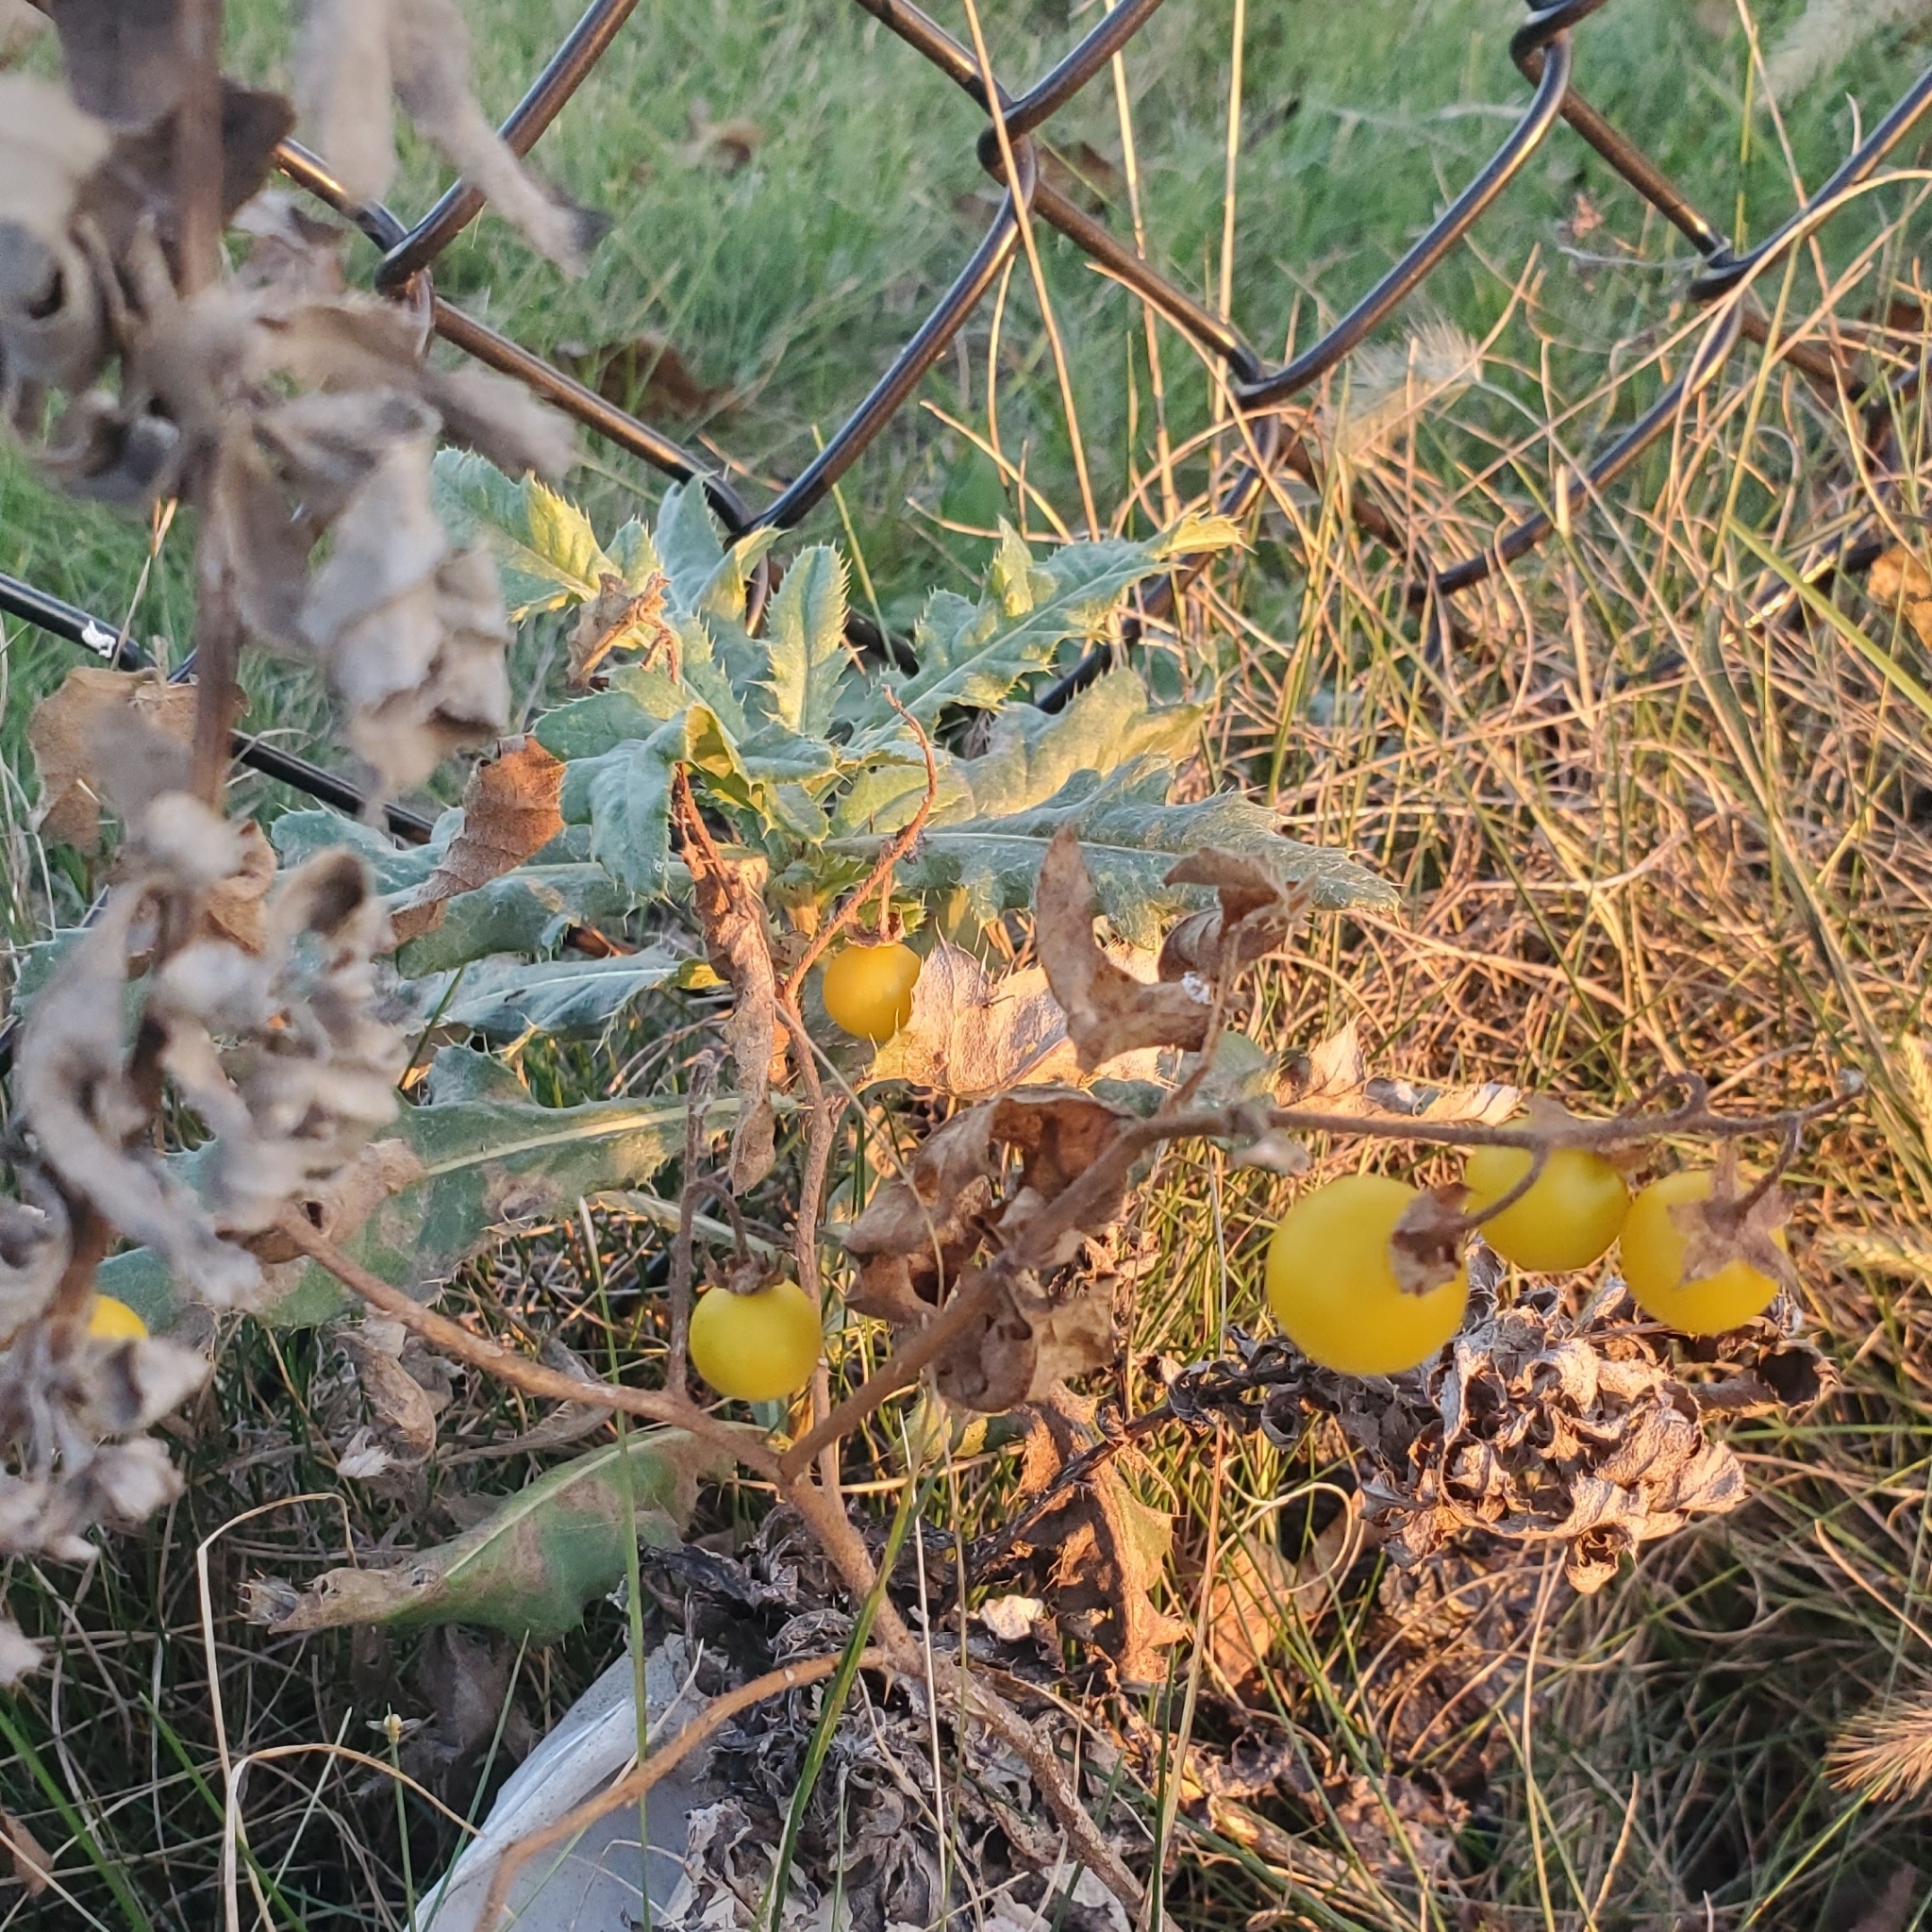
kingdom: Plantae
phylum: Tracheophyta
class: Magnoliopsida
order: Solanales
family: Solanaceae
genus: Solanum
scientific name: Solanum carolinense
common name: Horse-nettle
